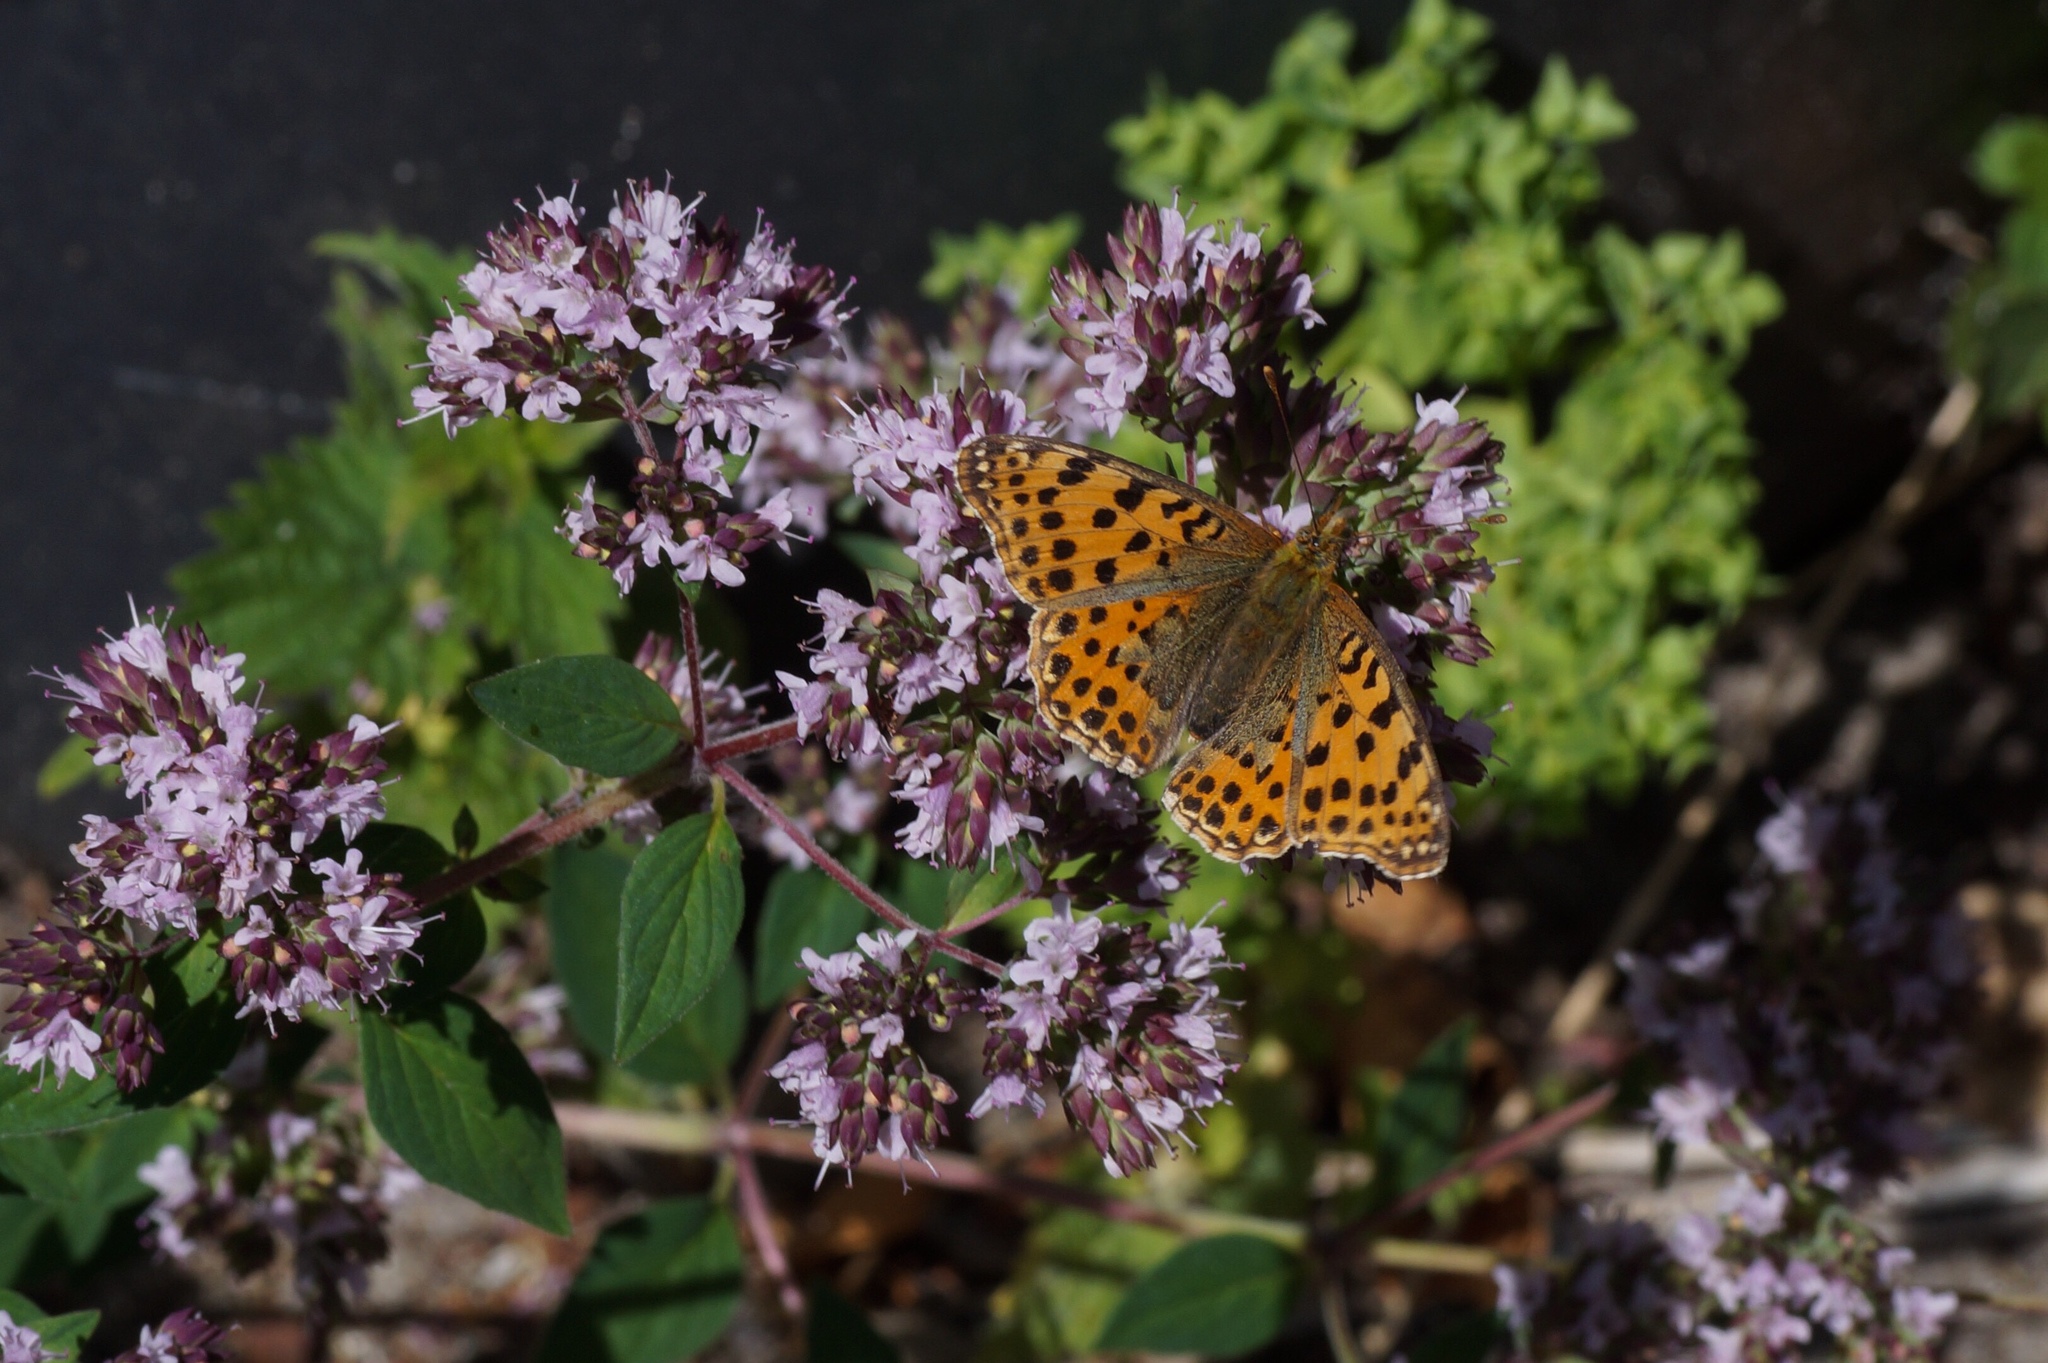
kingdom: Animalia
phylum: Arthropoda
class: Insecta
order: Lepidoptera
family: Nymphalidae
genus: Issoria
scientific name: Issoria lathonia
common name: Queen of spain fritillary
